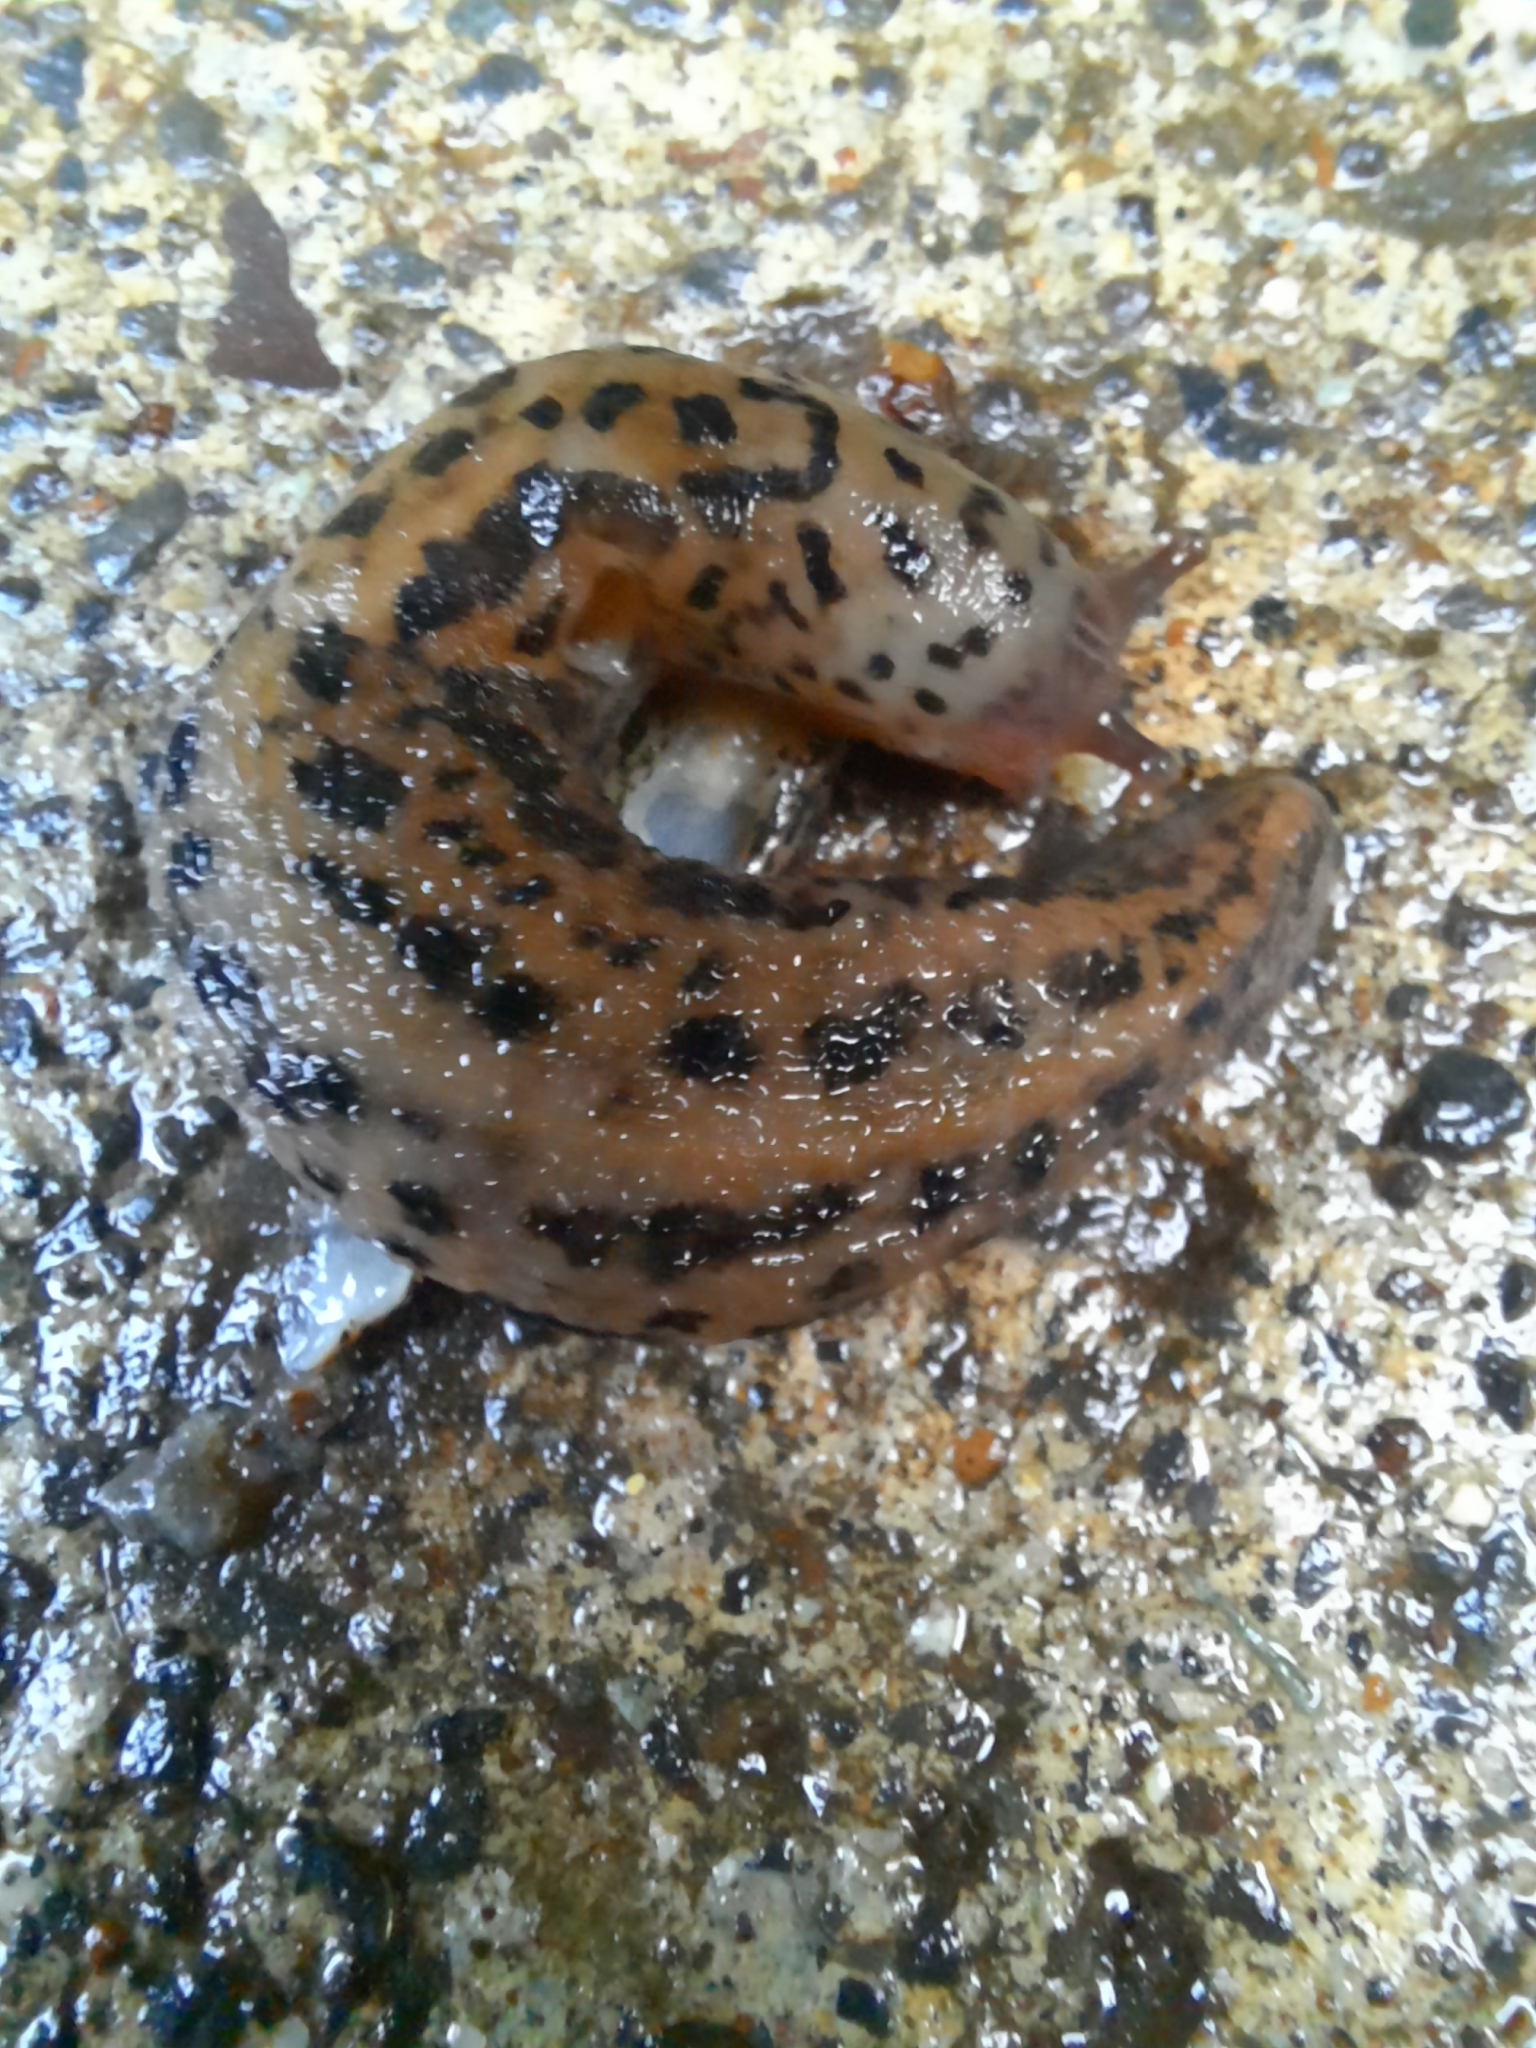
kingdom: Animalia
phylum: Mollusca
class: Gastropoda
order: Stylommatophora
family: Limacidae
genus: Limax
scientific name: Limax maximus
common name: Great grey slug
